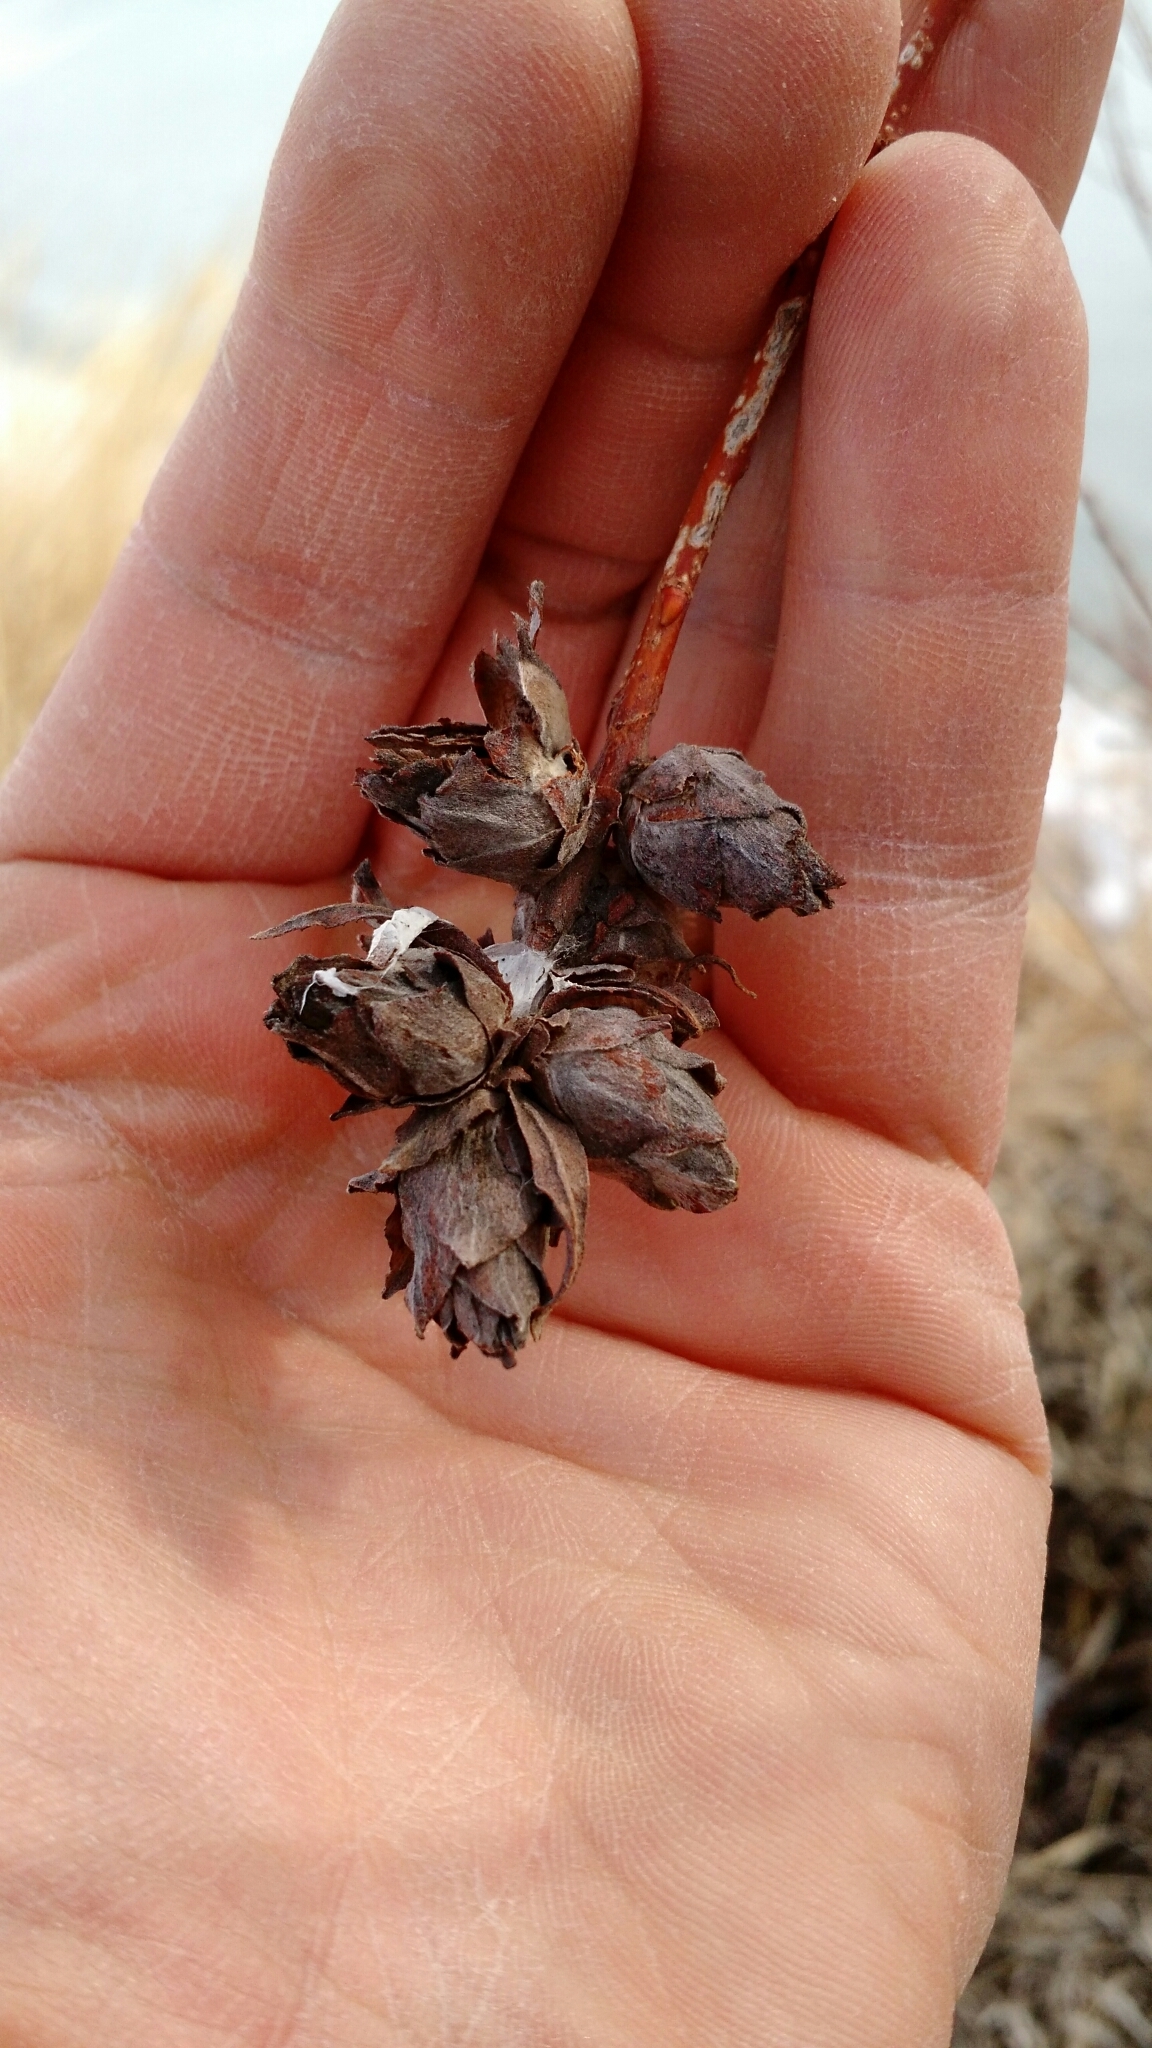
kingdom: Animalia
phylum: Arthropoda
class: Insecta
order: Diptera
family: Cecidomyiidae
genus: Rabdophaga
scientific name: Rabdophaga strobiloides
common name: Willow pinecone gall midge
